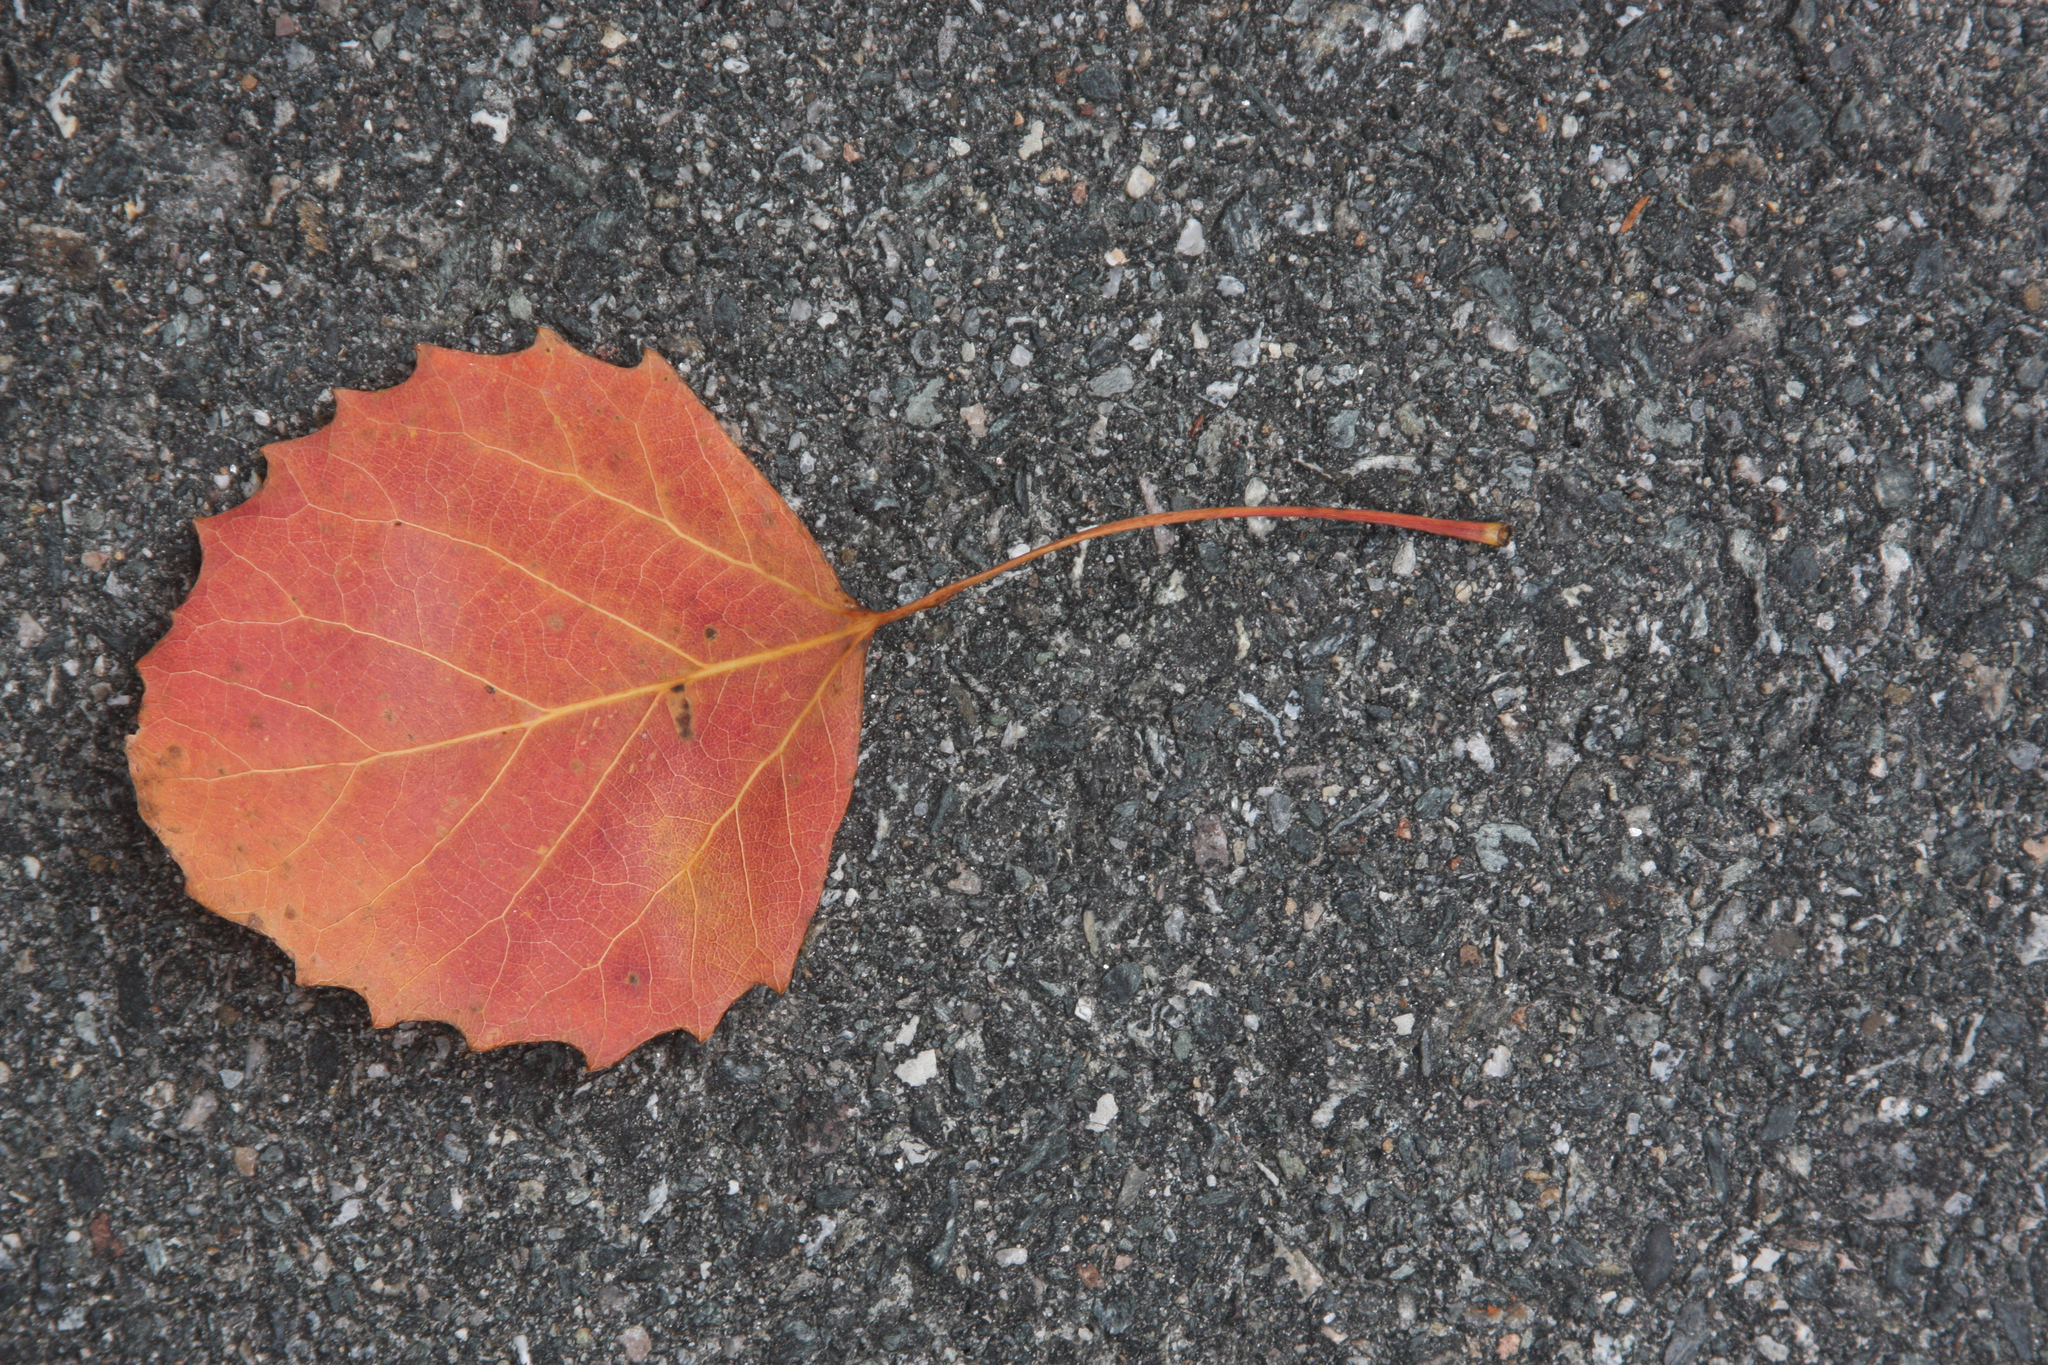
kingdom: Plantae
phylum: Tracheophyta
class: Magnoliopsida
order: Malpighiales
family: Salicaceae
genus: Populus
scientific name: Populus grandidentata
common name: Bigtooth aspen
